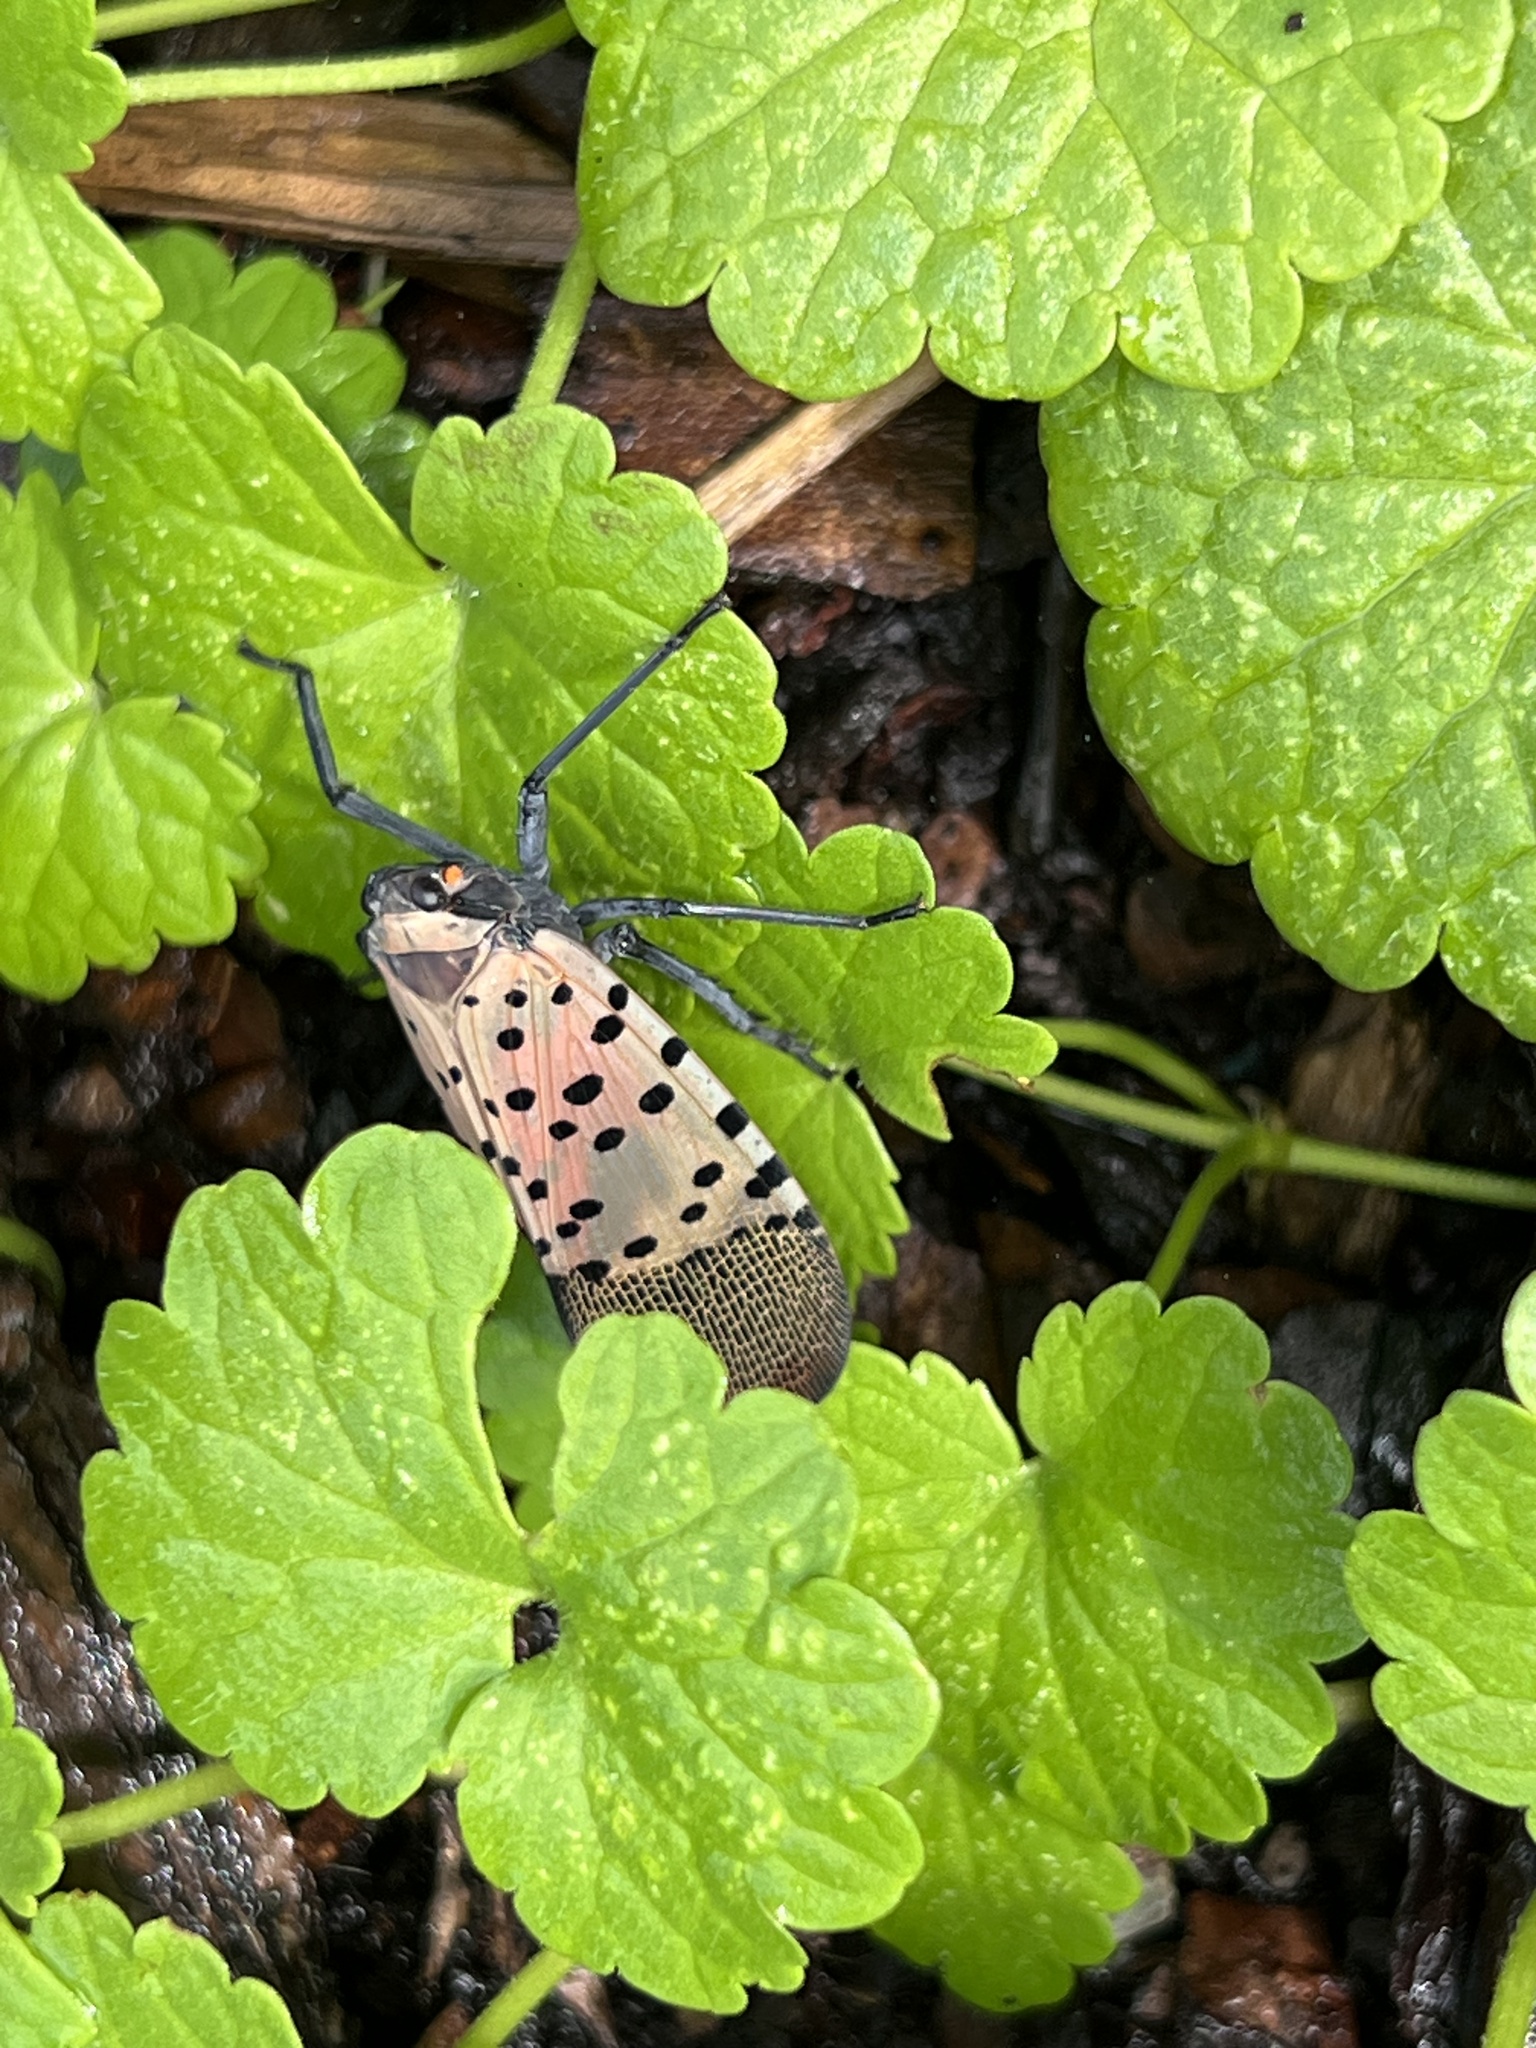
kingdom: Animalia
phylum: Arthropoda
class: Insecta
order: Hemiptera
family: Fulgoridae
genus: Lycorma
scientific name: Lycorma delicatula
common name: Spotted lanternfly
